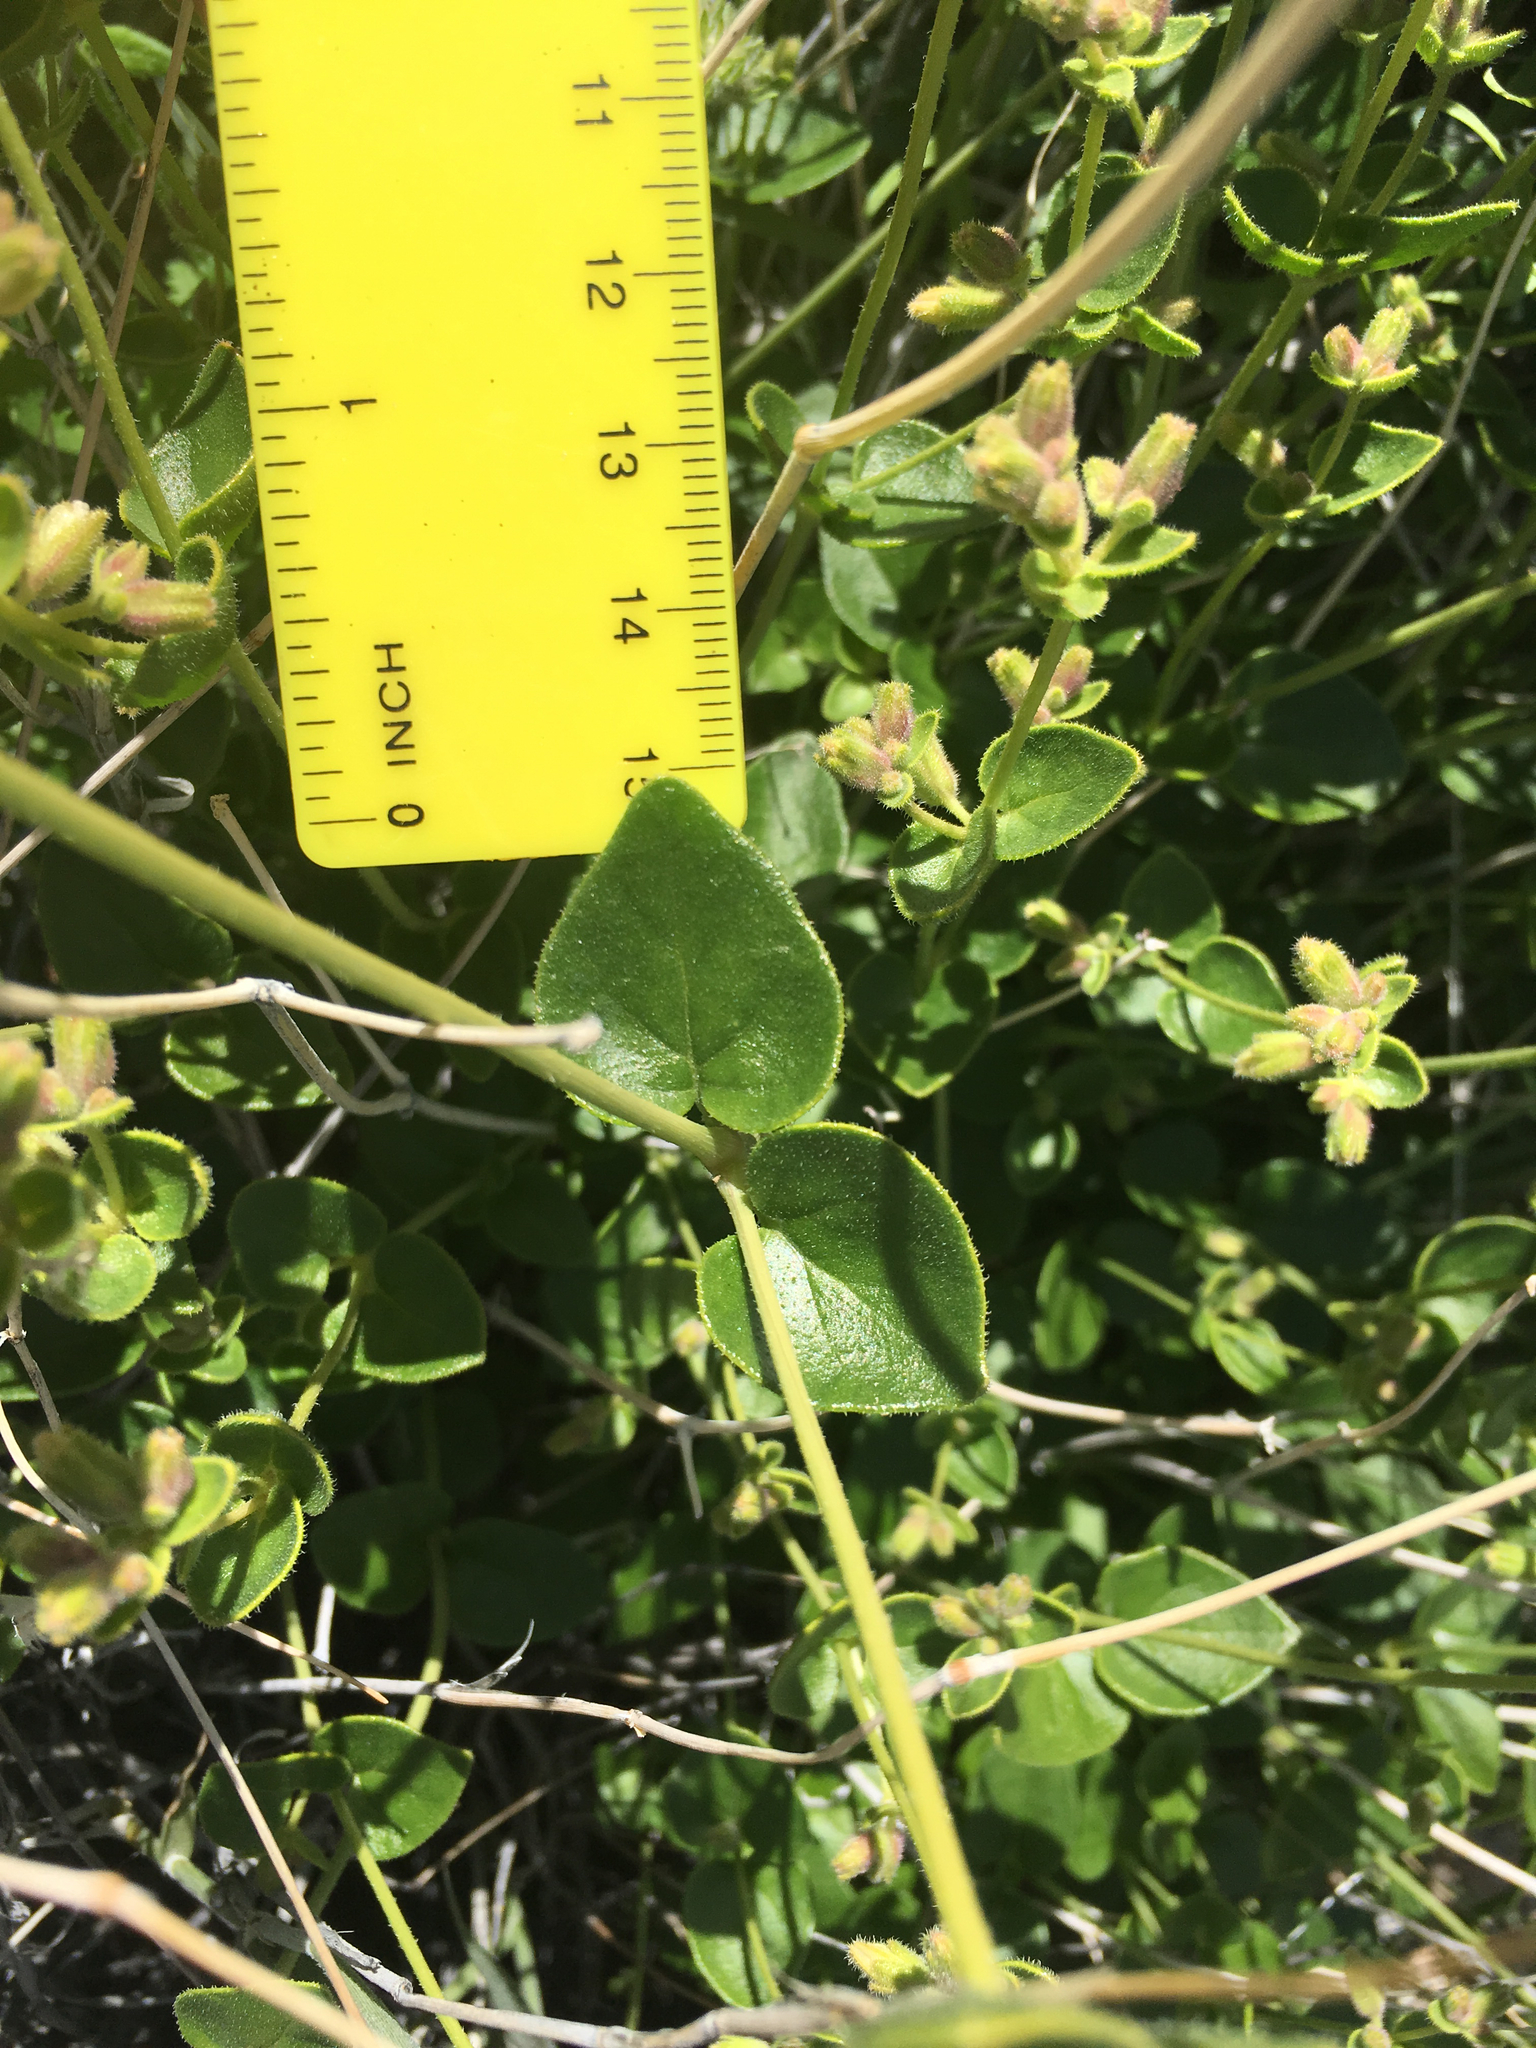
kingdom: Plantae
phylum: Tracheophyta
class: Magnoliopsida
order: Caryophyllales
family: Nyctaginaceae
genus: Mirabilis
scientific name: Mirabilis laevis
